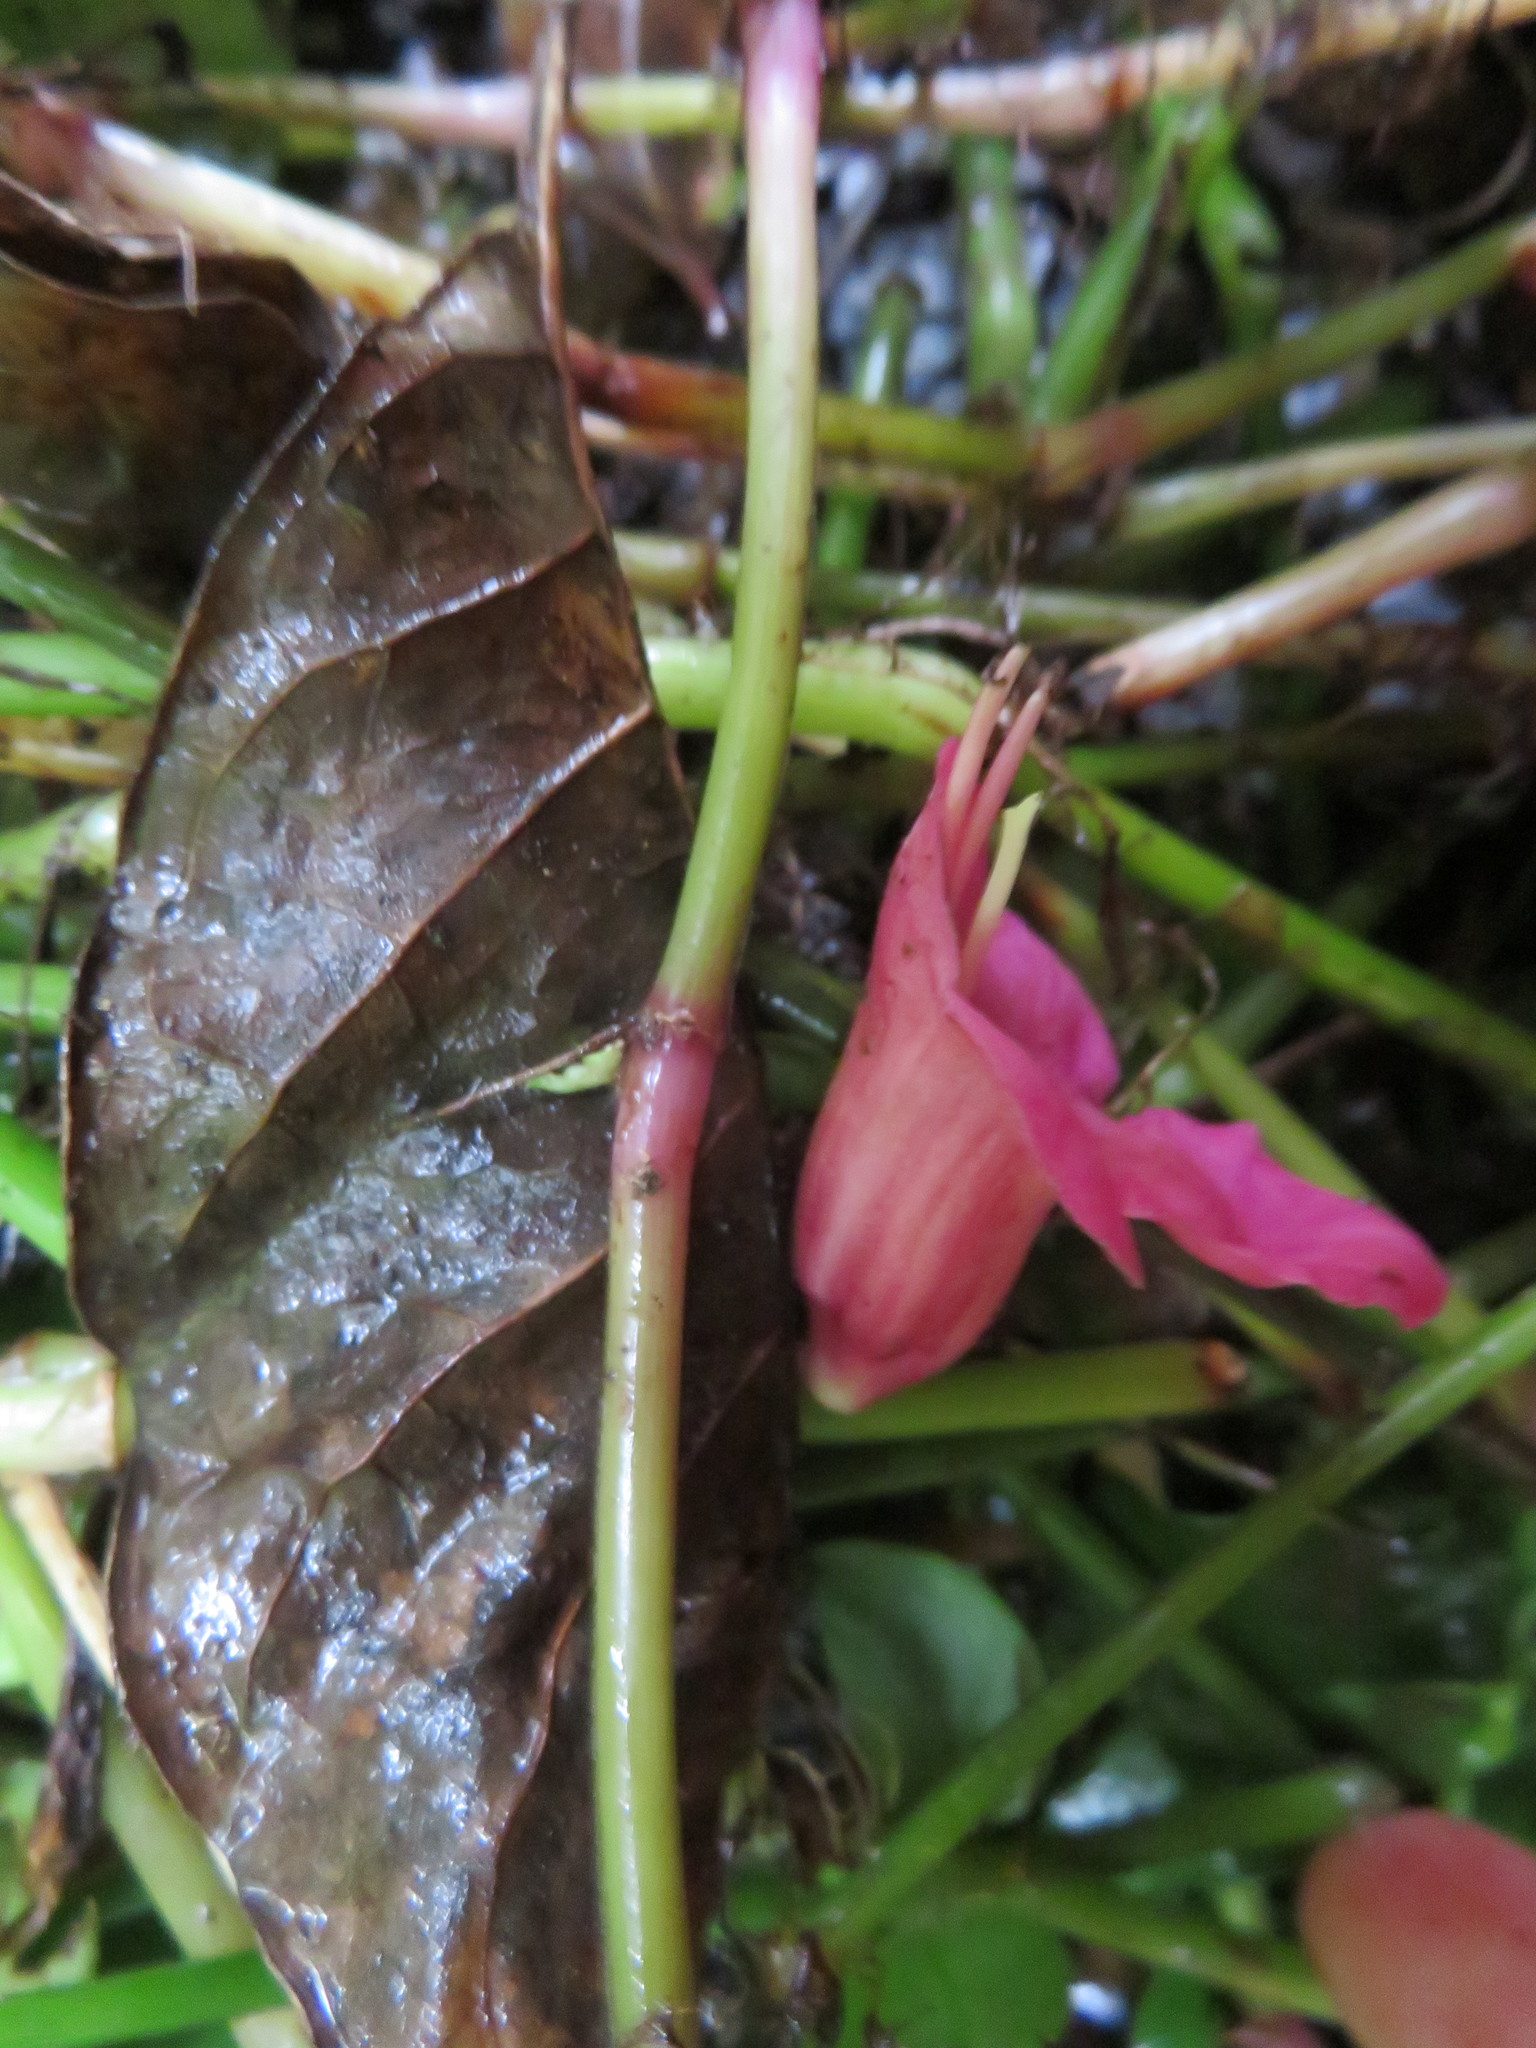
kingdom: Plantae
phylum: Tracheophyta
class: Magnoliopsida
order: Lamiales
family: Lamiaceae
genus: Vitex
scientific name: Vitex lucens
